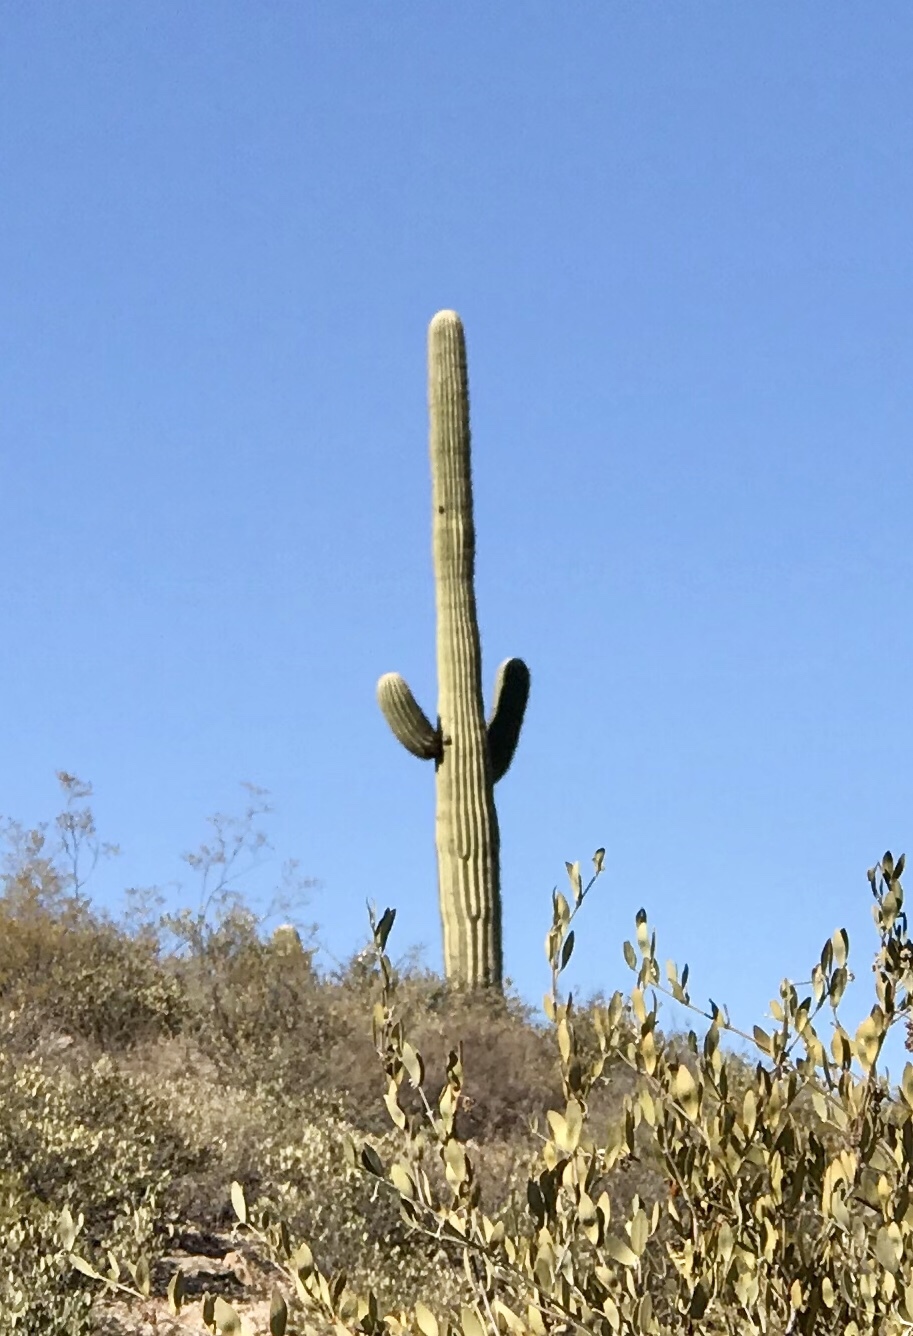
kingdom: Plantae
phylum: Tracheophyta
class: Magnoliopsida
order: Caryophyllales
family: Cactaceae
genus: Carnegiea
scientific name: Carnegiea gigantea
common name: Saguaro
